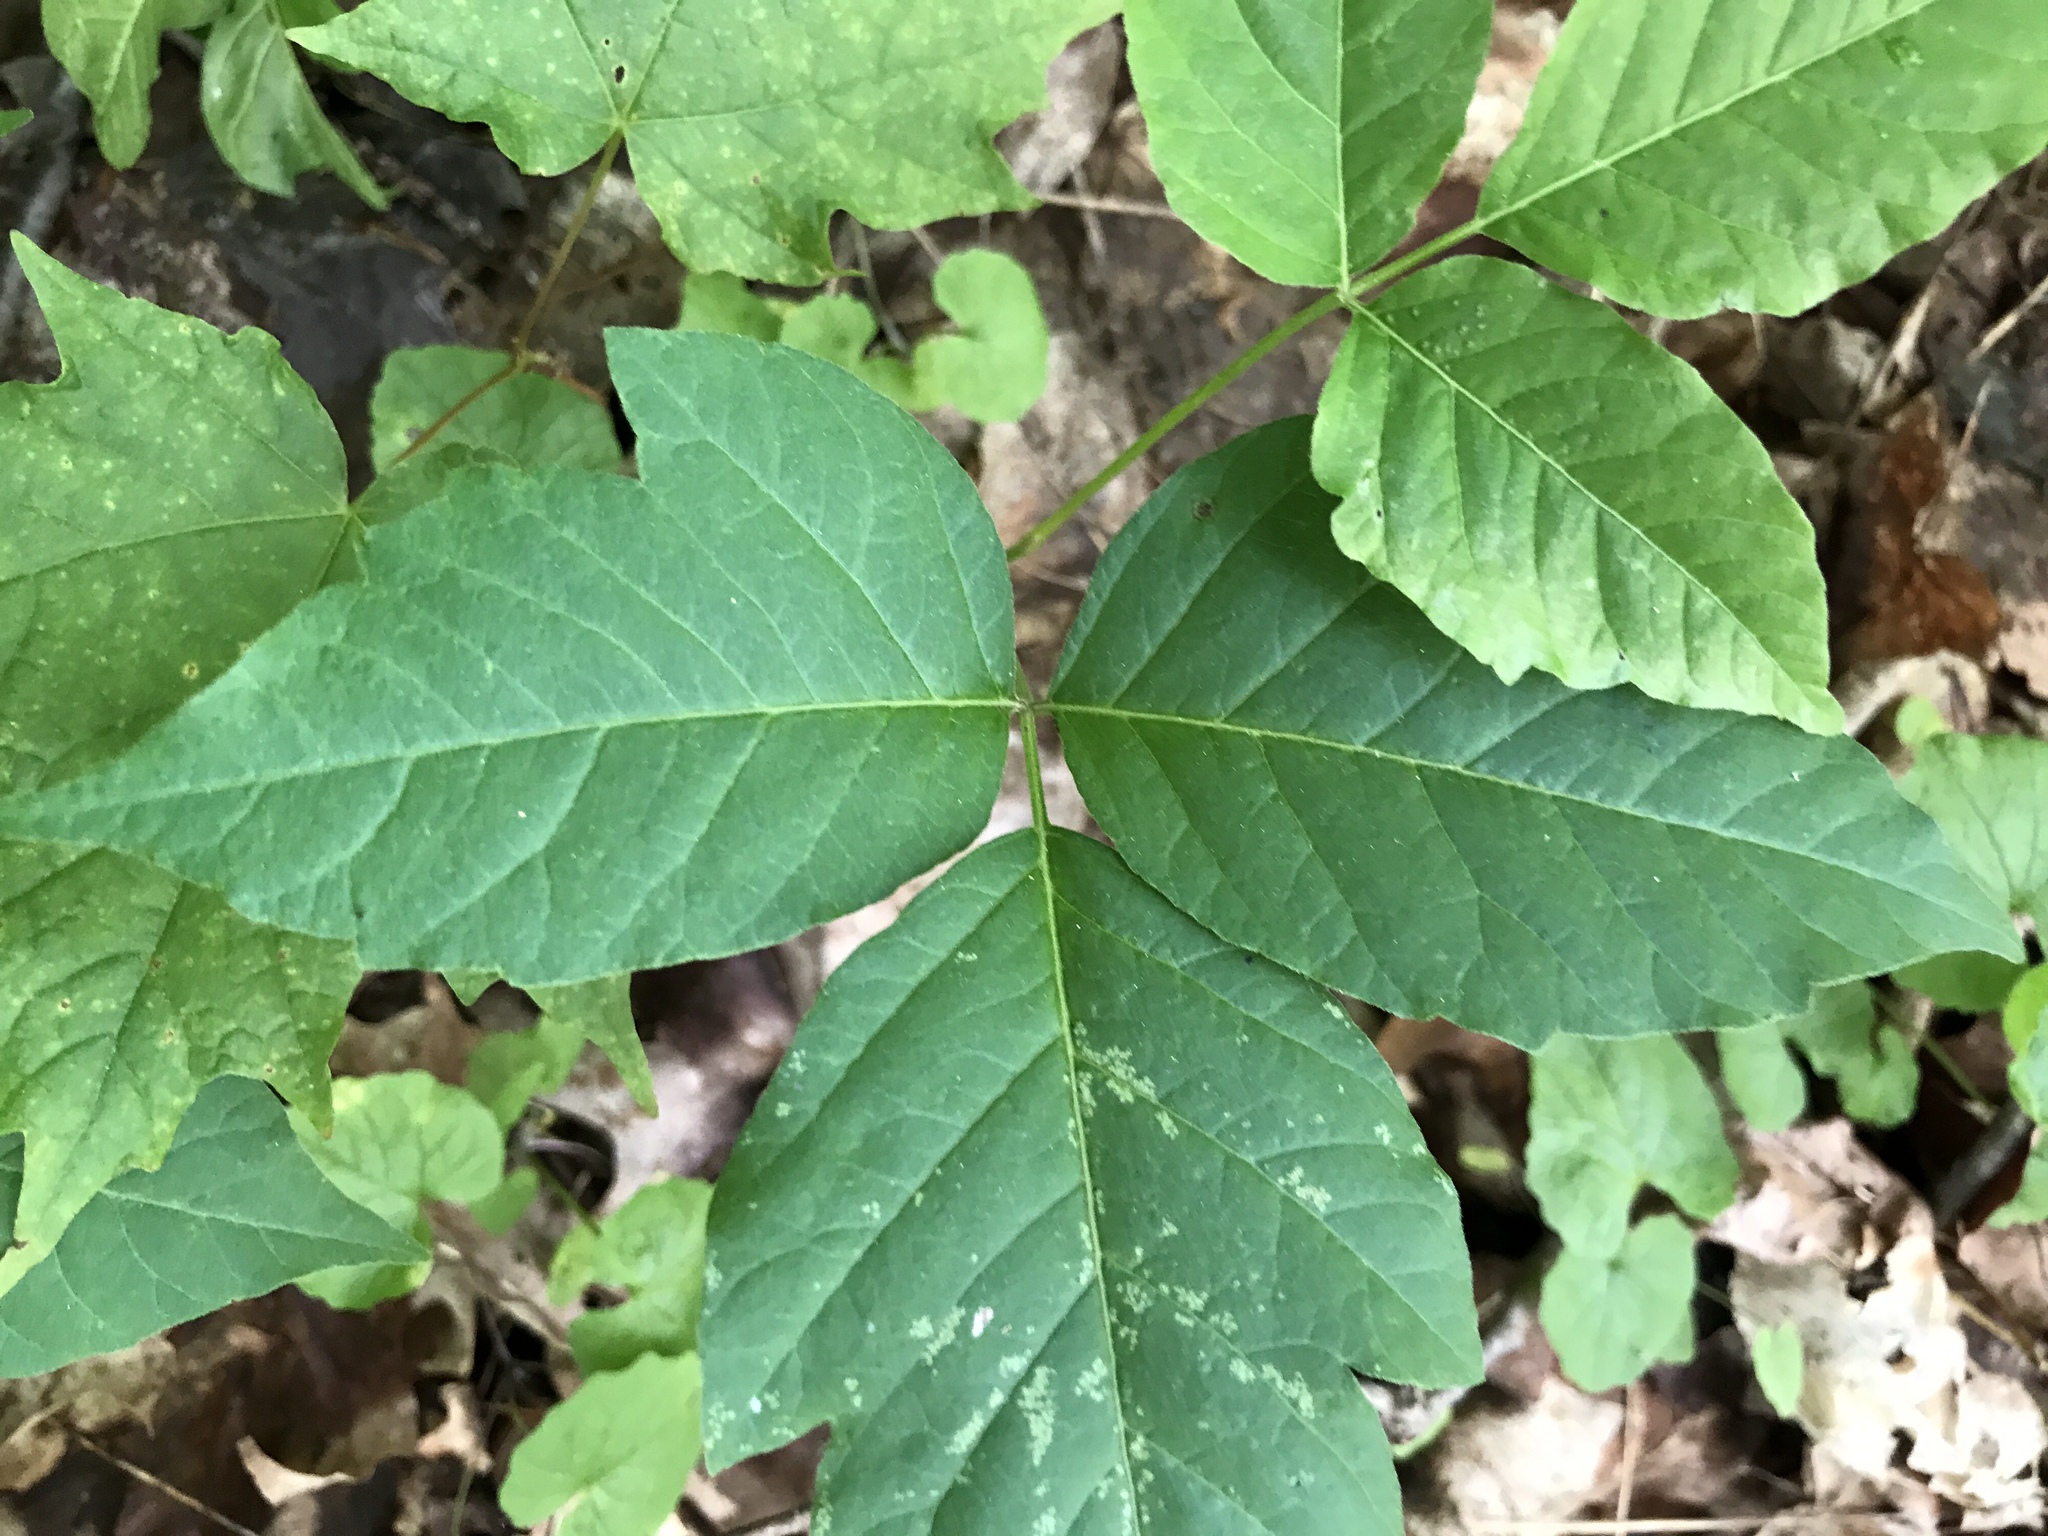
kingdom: Plantae
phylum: Tracheophyta
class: Magnoliopsida
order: Sapindales
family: Anacardiaceae
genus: Toxicodendron
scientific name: Toxicodendron radicans
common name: Poison ivy
